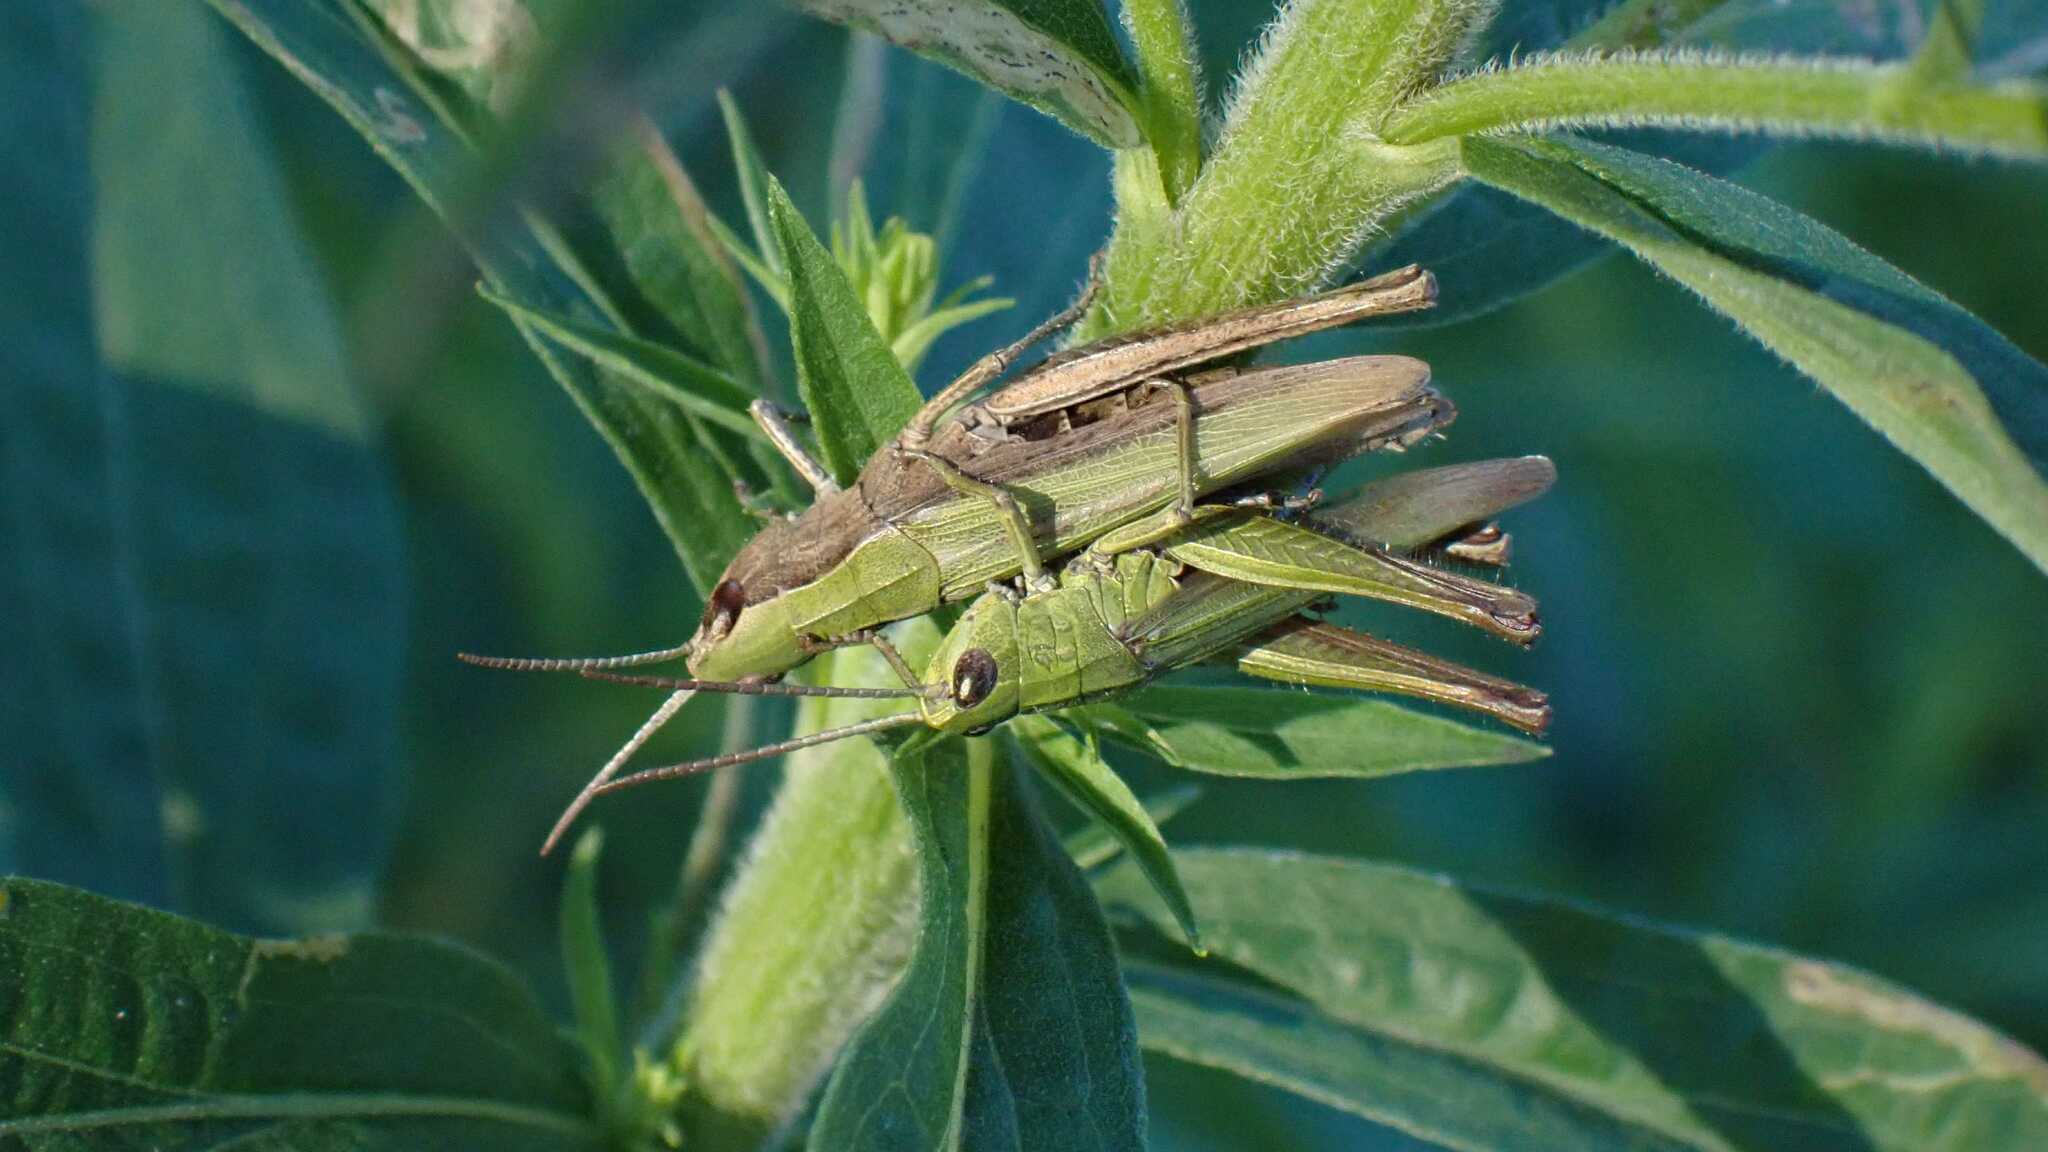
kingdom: Animalia
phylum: Arthropoda
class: Insecta
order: Orthoptera
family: Acrididae
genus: Chorthippus
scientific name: Chorthippus dorsatus
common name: Steppe grasshopper
